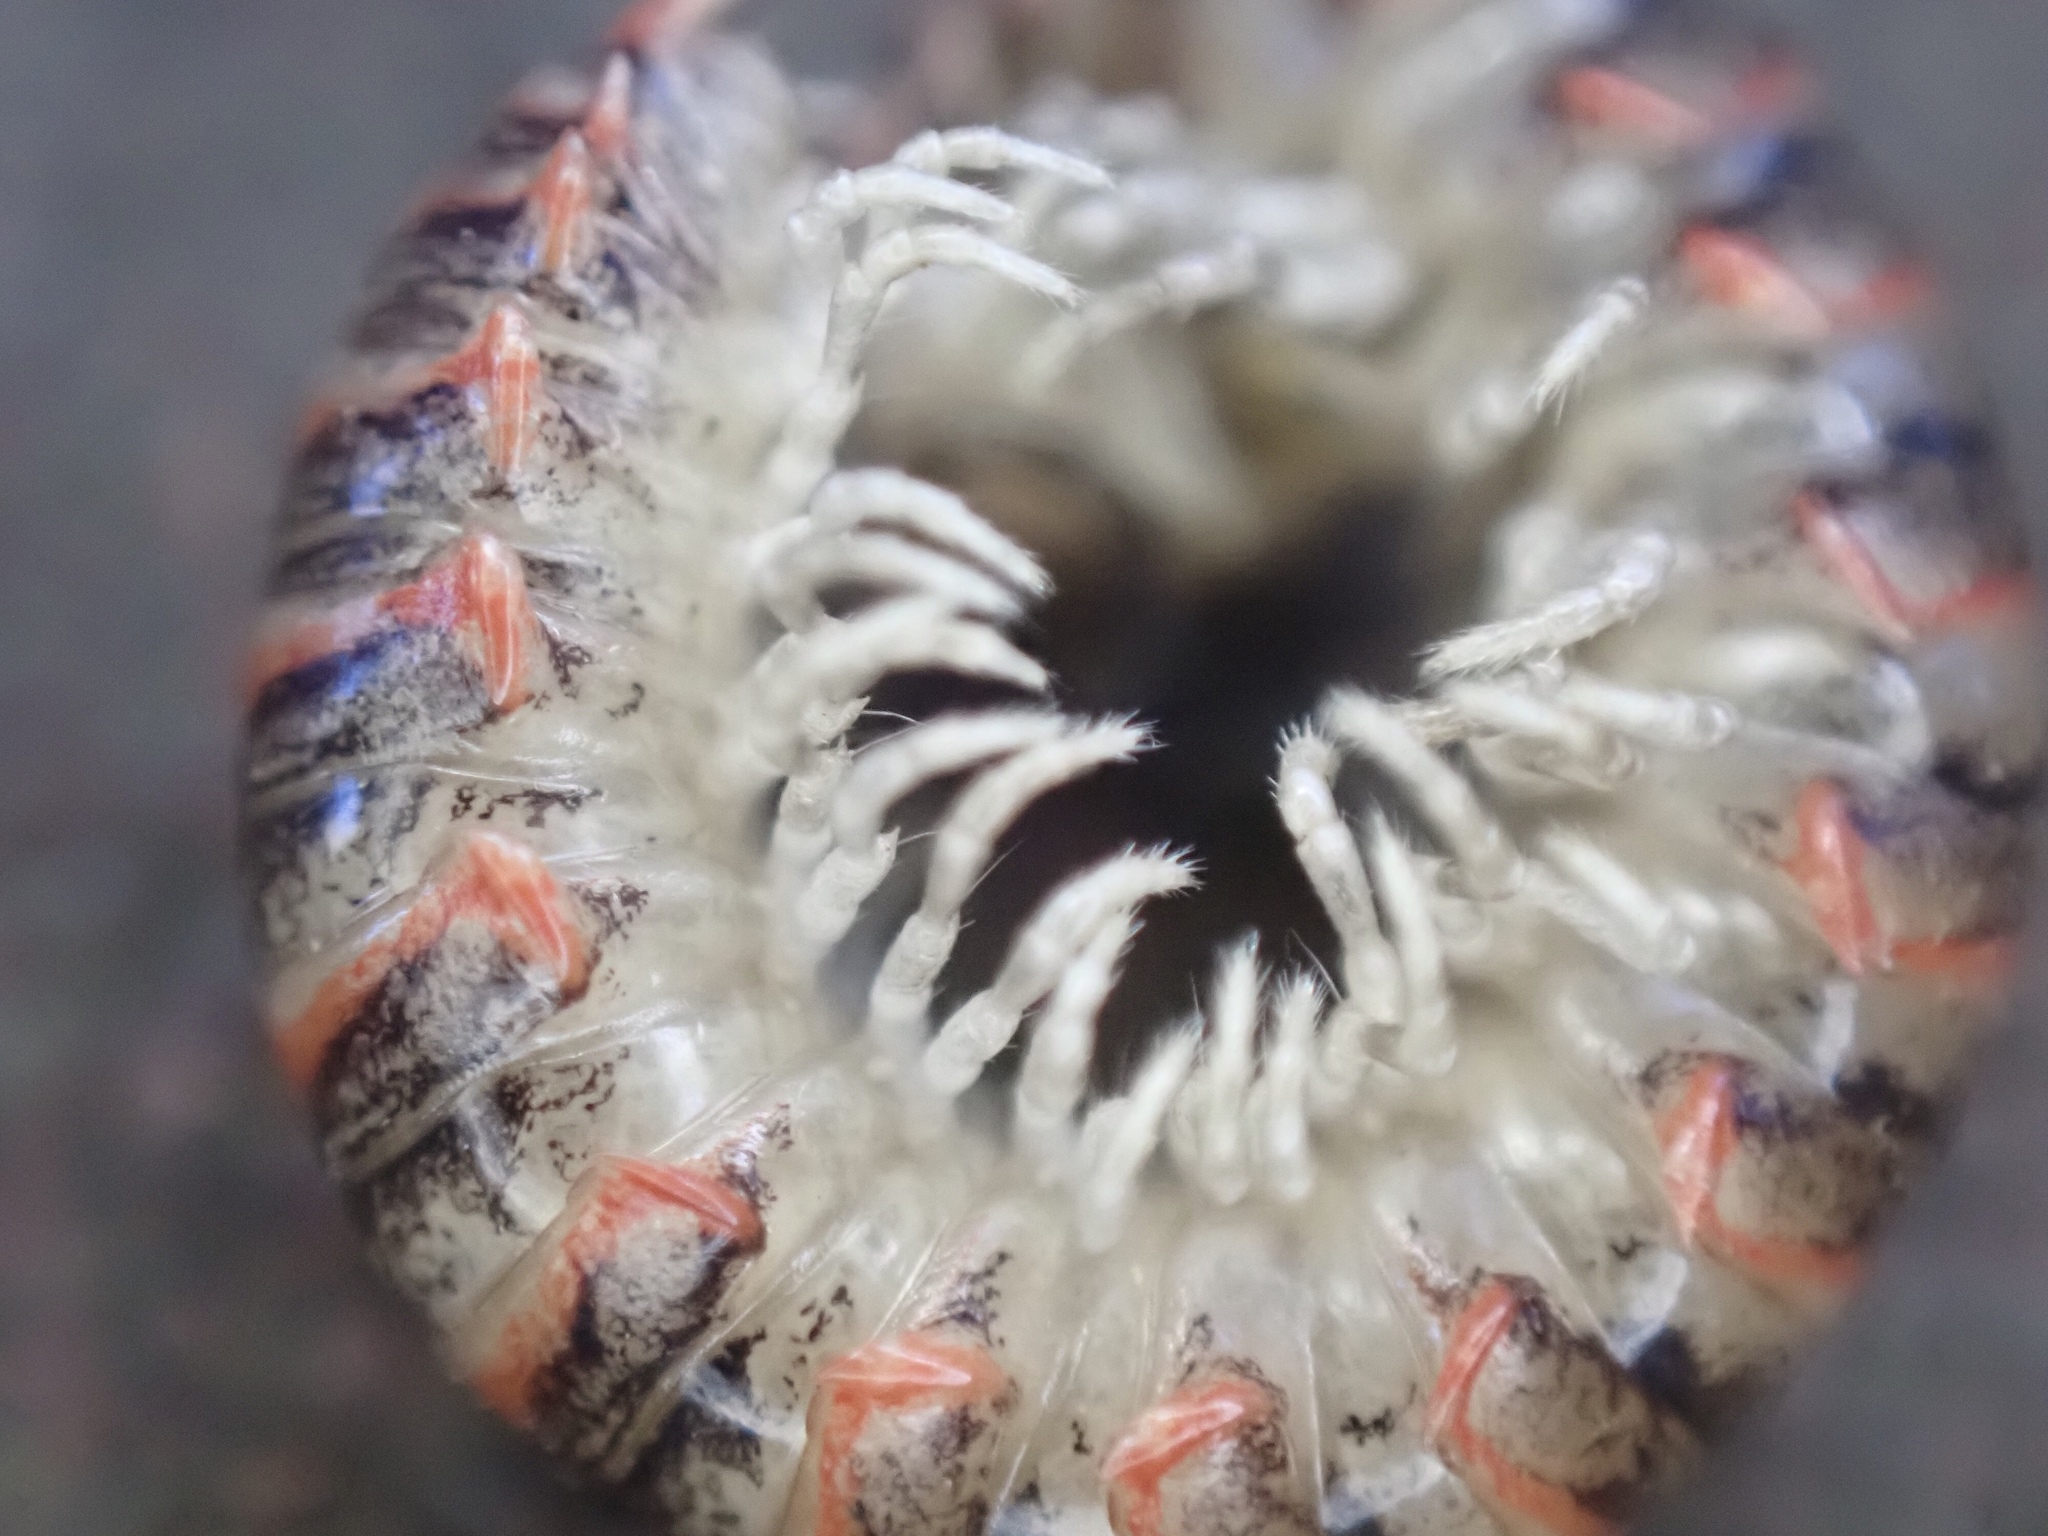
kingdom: Animalia
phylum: Arthropoda
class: Diplopoda
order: Polydesmida
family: Xystodesmidae
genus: Oenomaea
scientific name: Oenomaea pulchella
